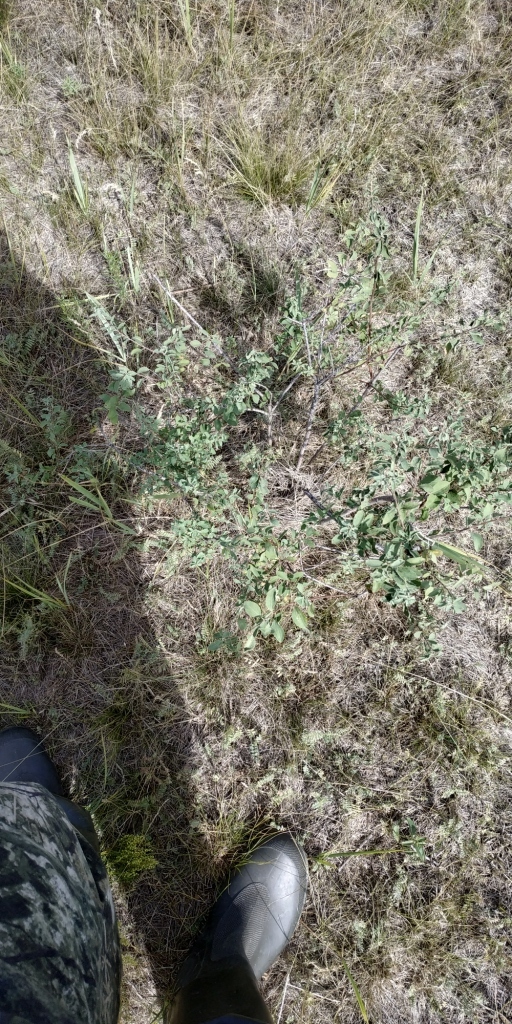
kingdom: Plantae
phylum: Tracheophyta
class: Magnoliopsida
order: Rosales
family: Rosaceae
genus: Spiraea
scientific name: Spiraea crenata
